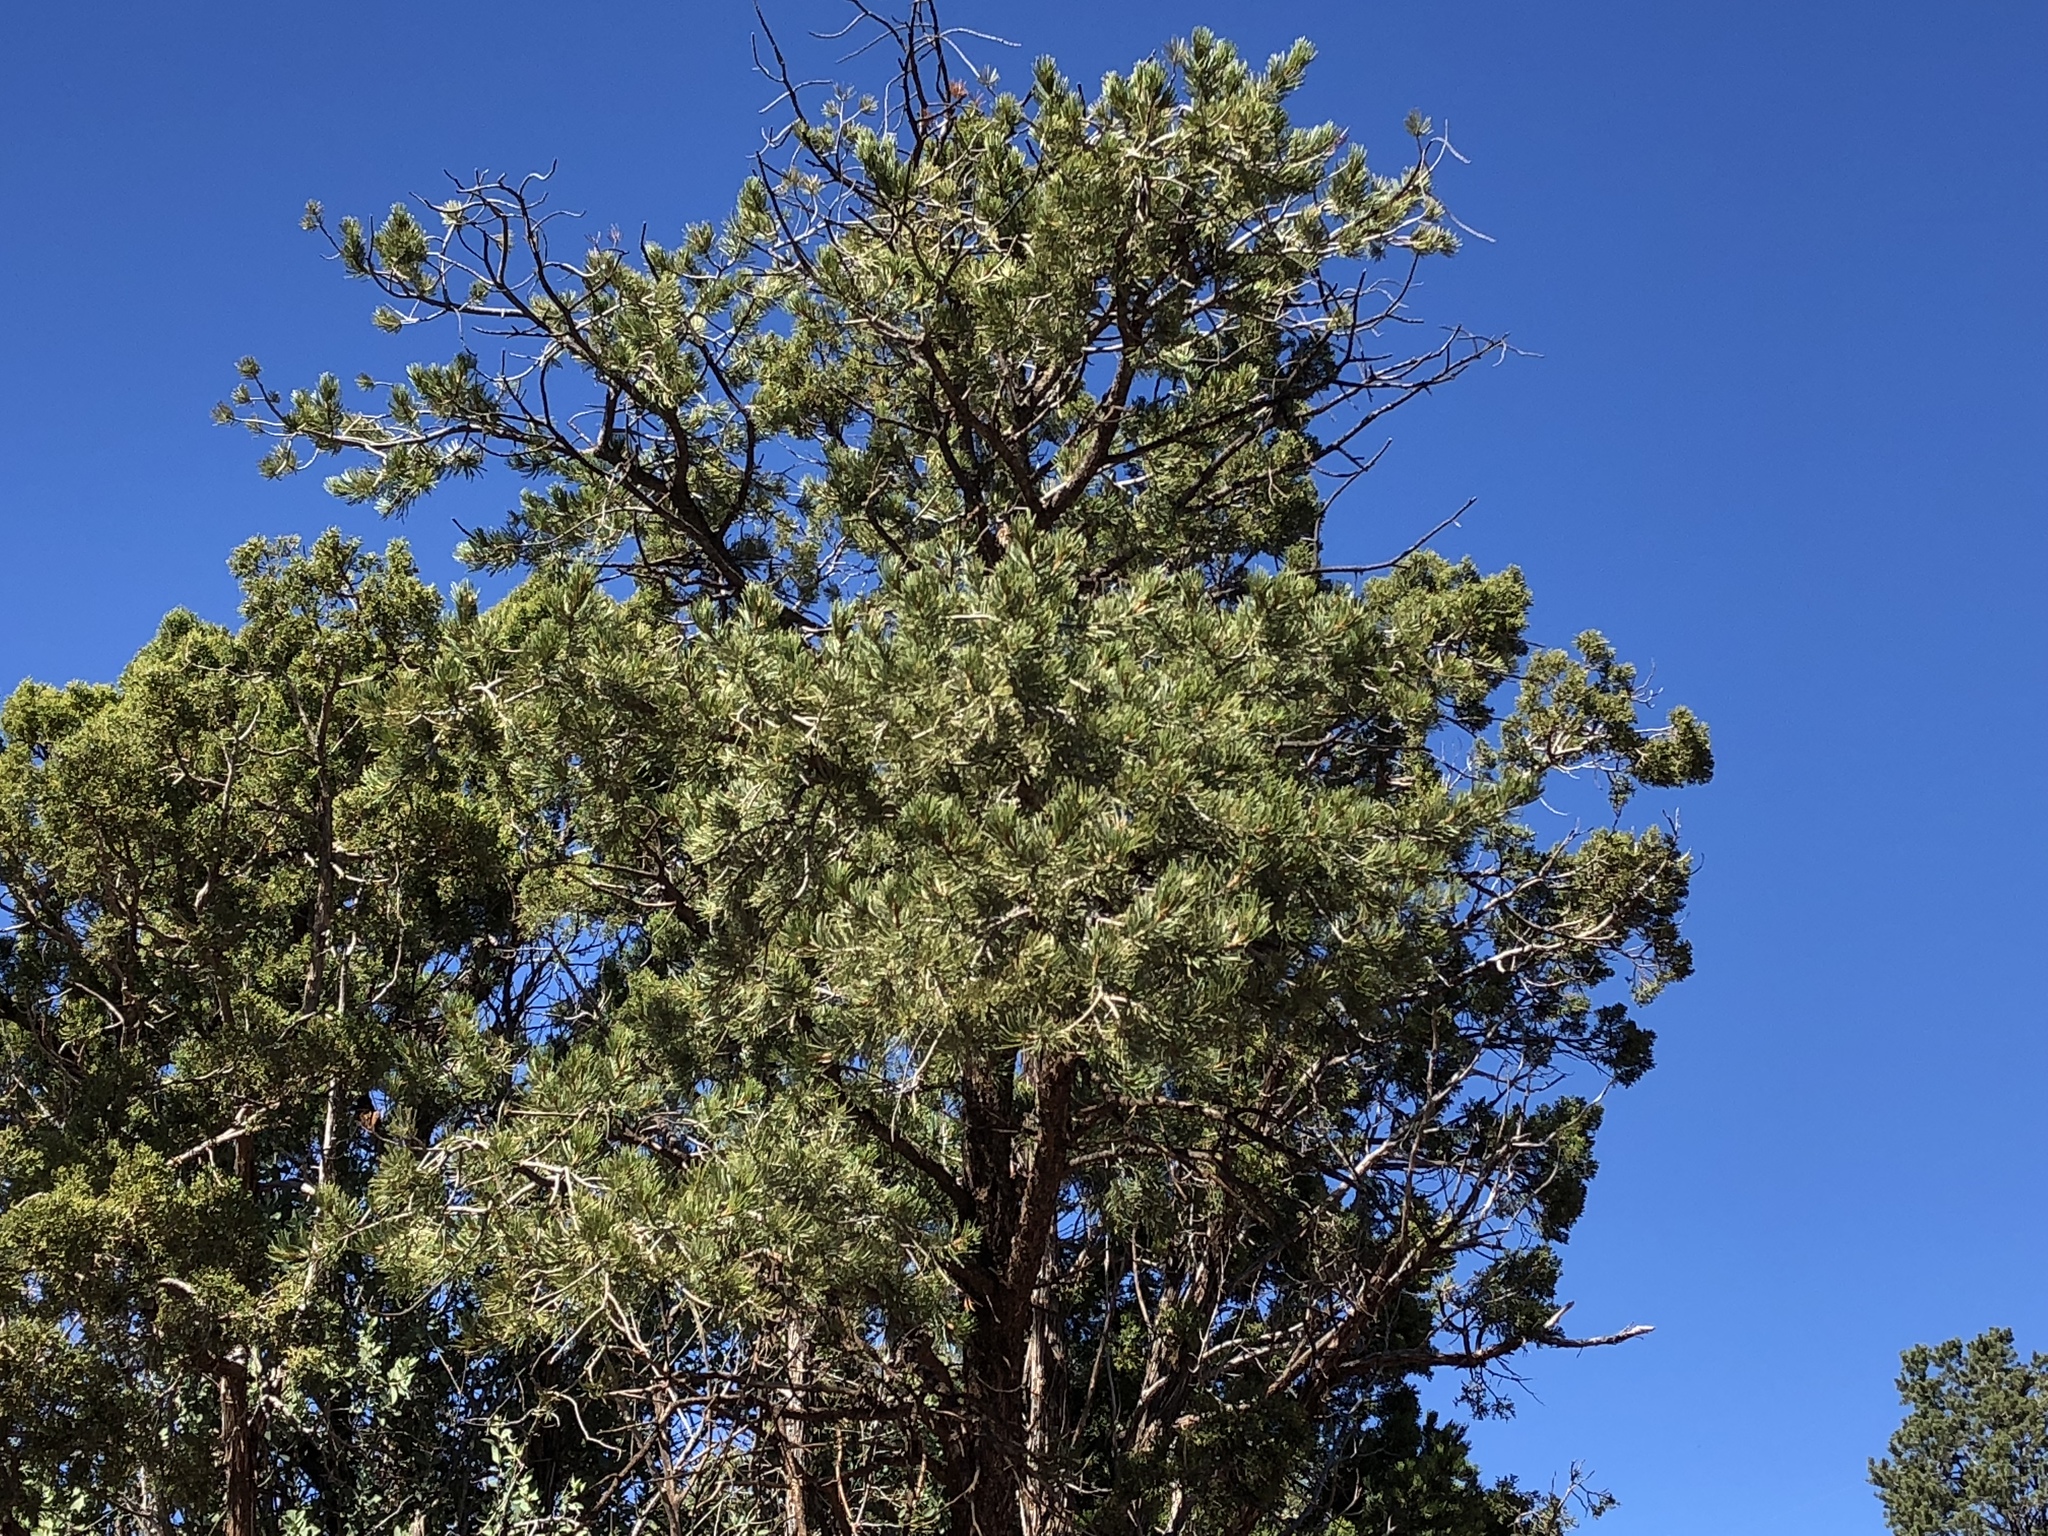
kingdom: Plantae
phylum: Tracheophyta
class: Pinopsida
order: Pinales
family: Pinaceae
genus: Pinus
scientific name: Pinus edulis
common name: Colorado pinyon
